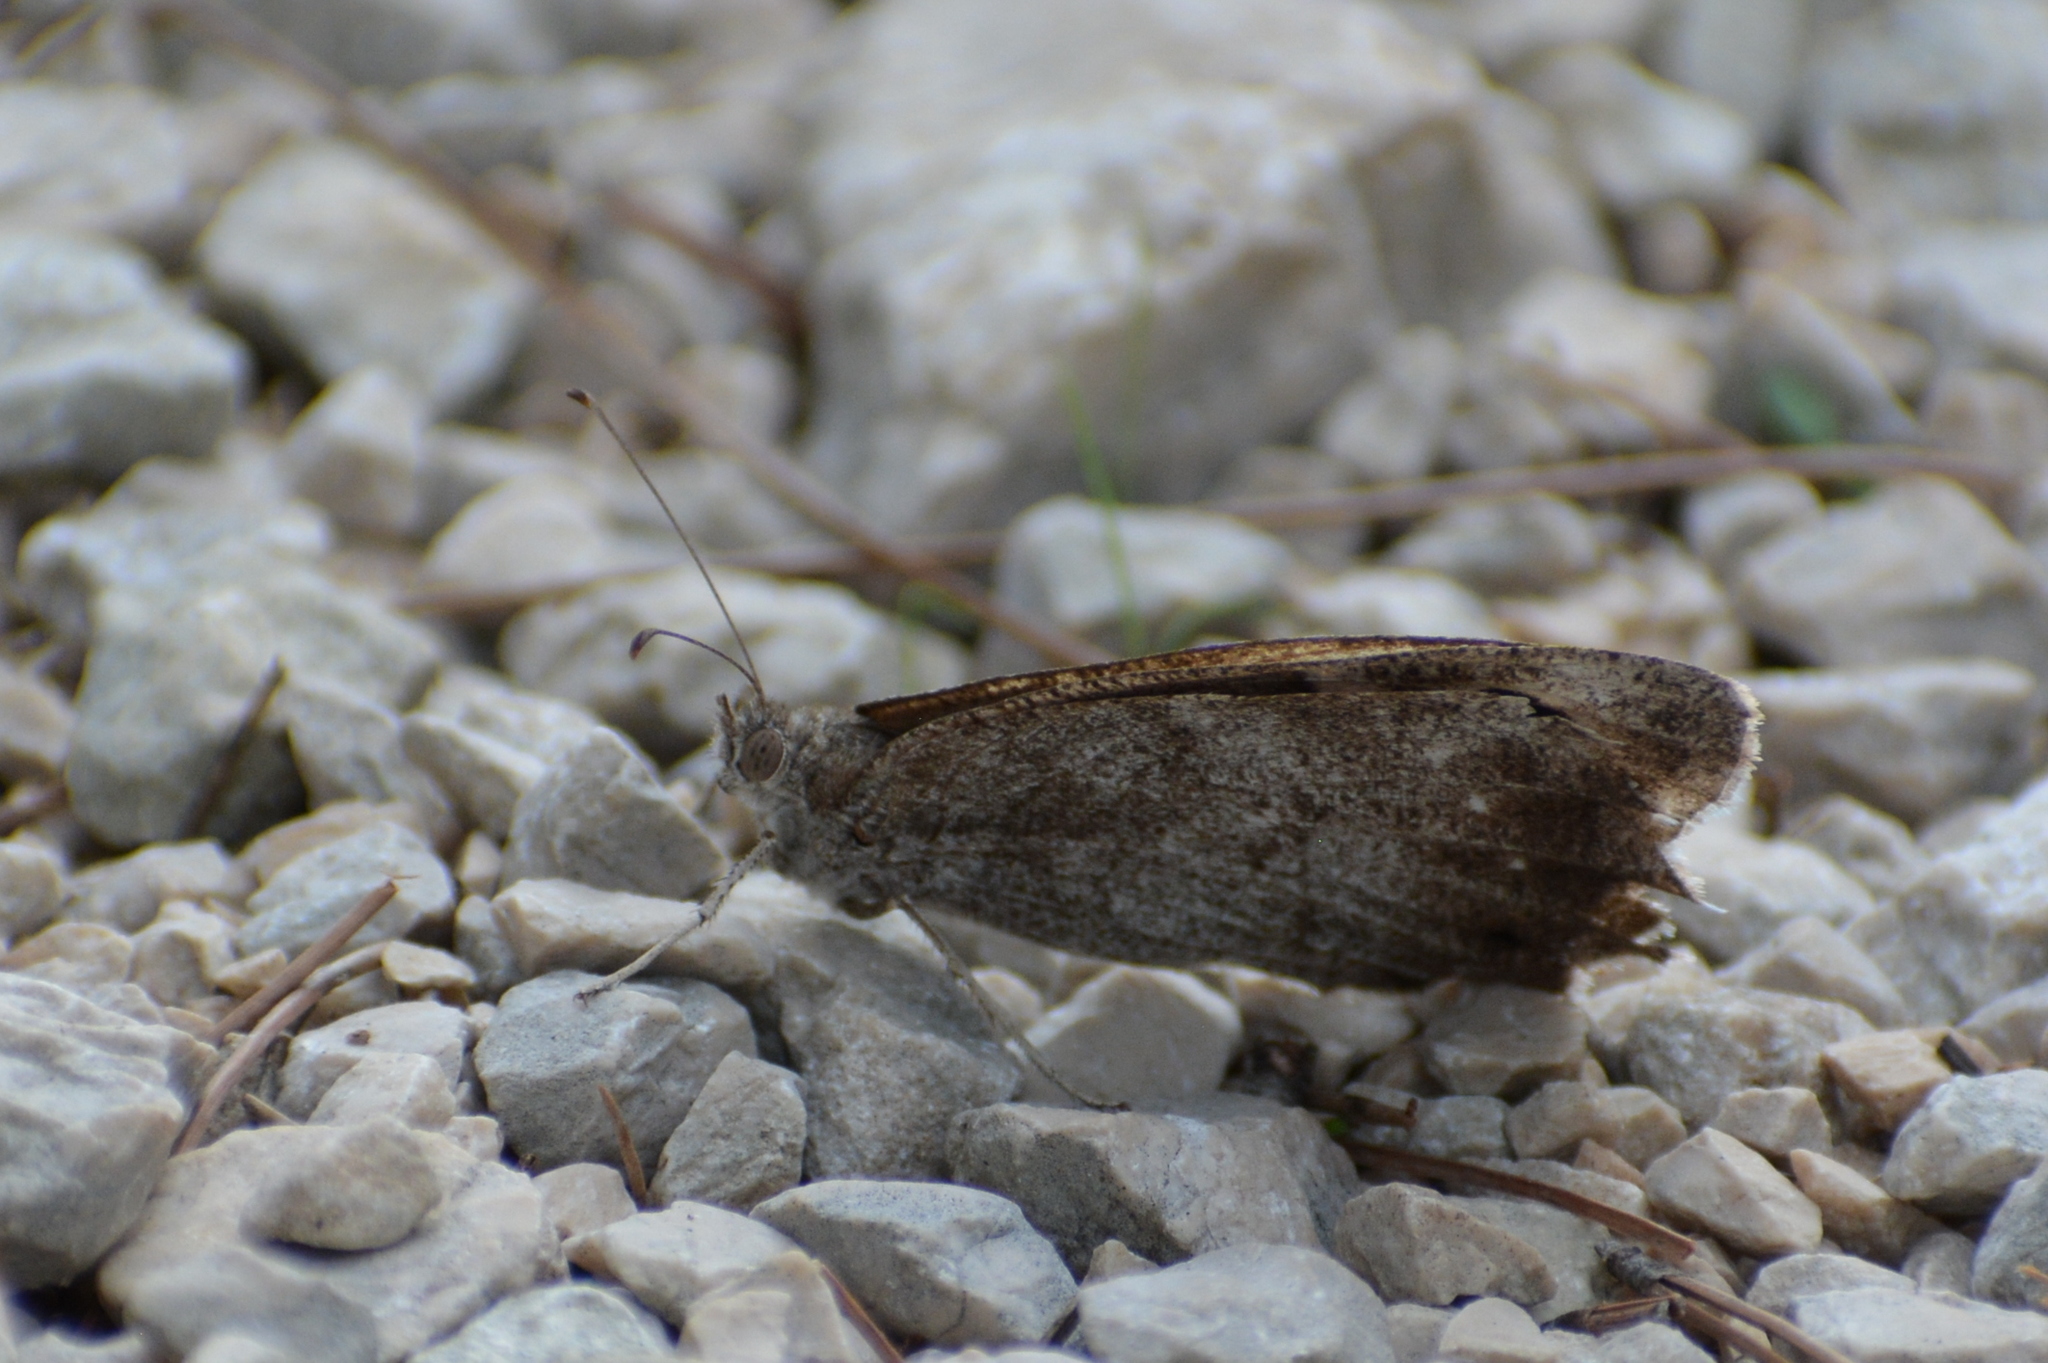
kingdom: Animalia
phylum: Arthropoda
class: Insecta
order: Lepidoptera
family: Nymphalidae
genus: Hipparchia
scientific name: Hipparchia statilinus
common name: Tree grayling
